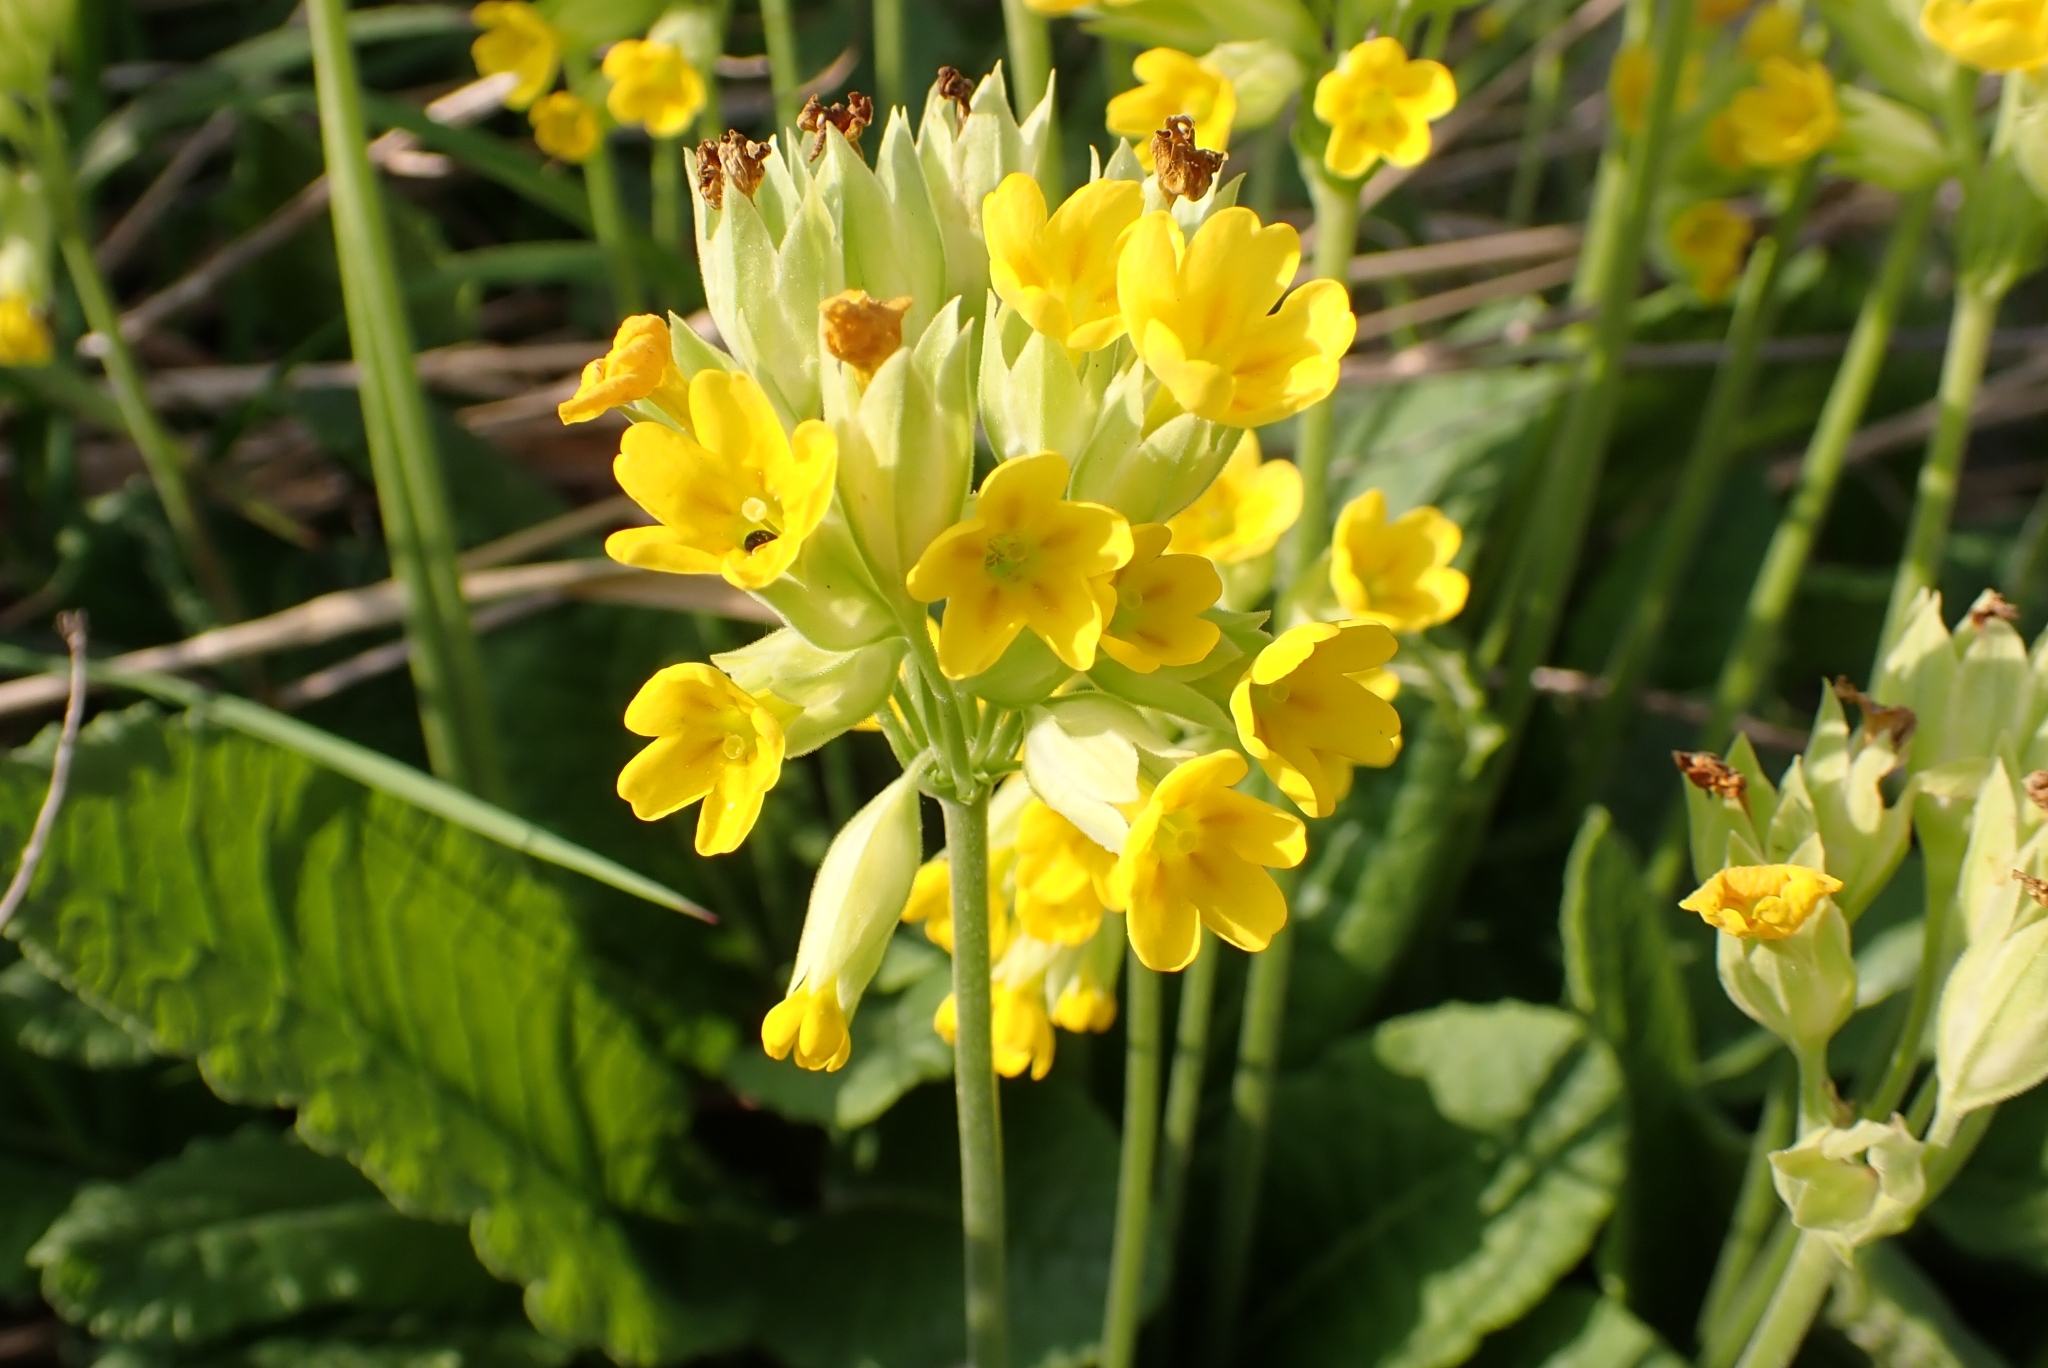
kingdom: Plantae
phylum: Tracheophyta
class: Magnoliopsida
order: Ericales
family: Primulaceae
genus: Primula
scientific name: Primula veris
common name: Cowslip
